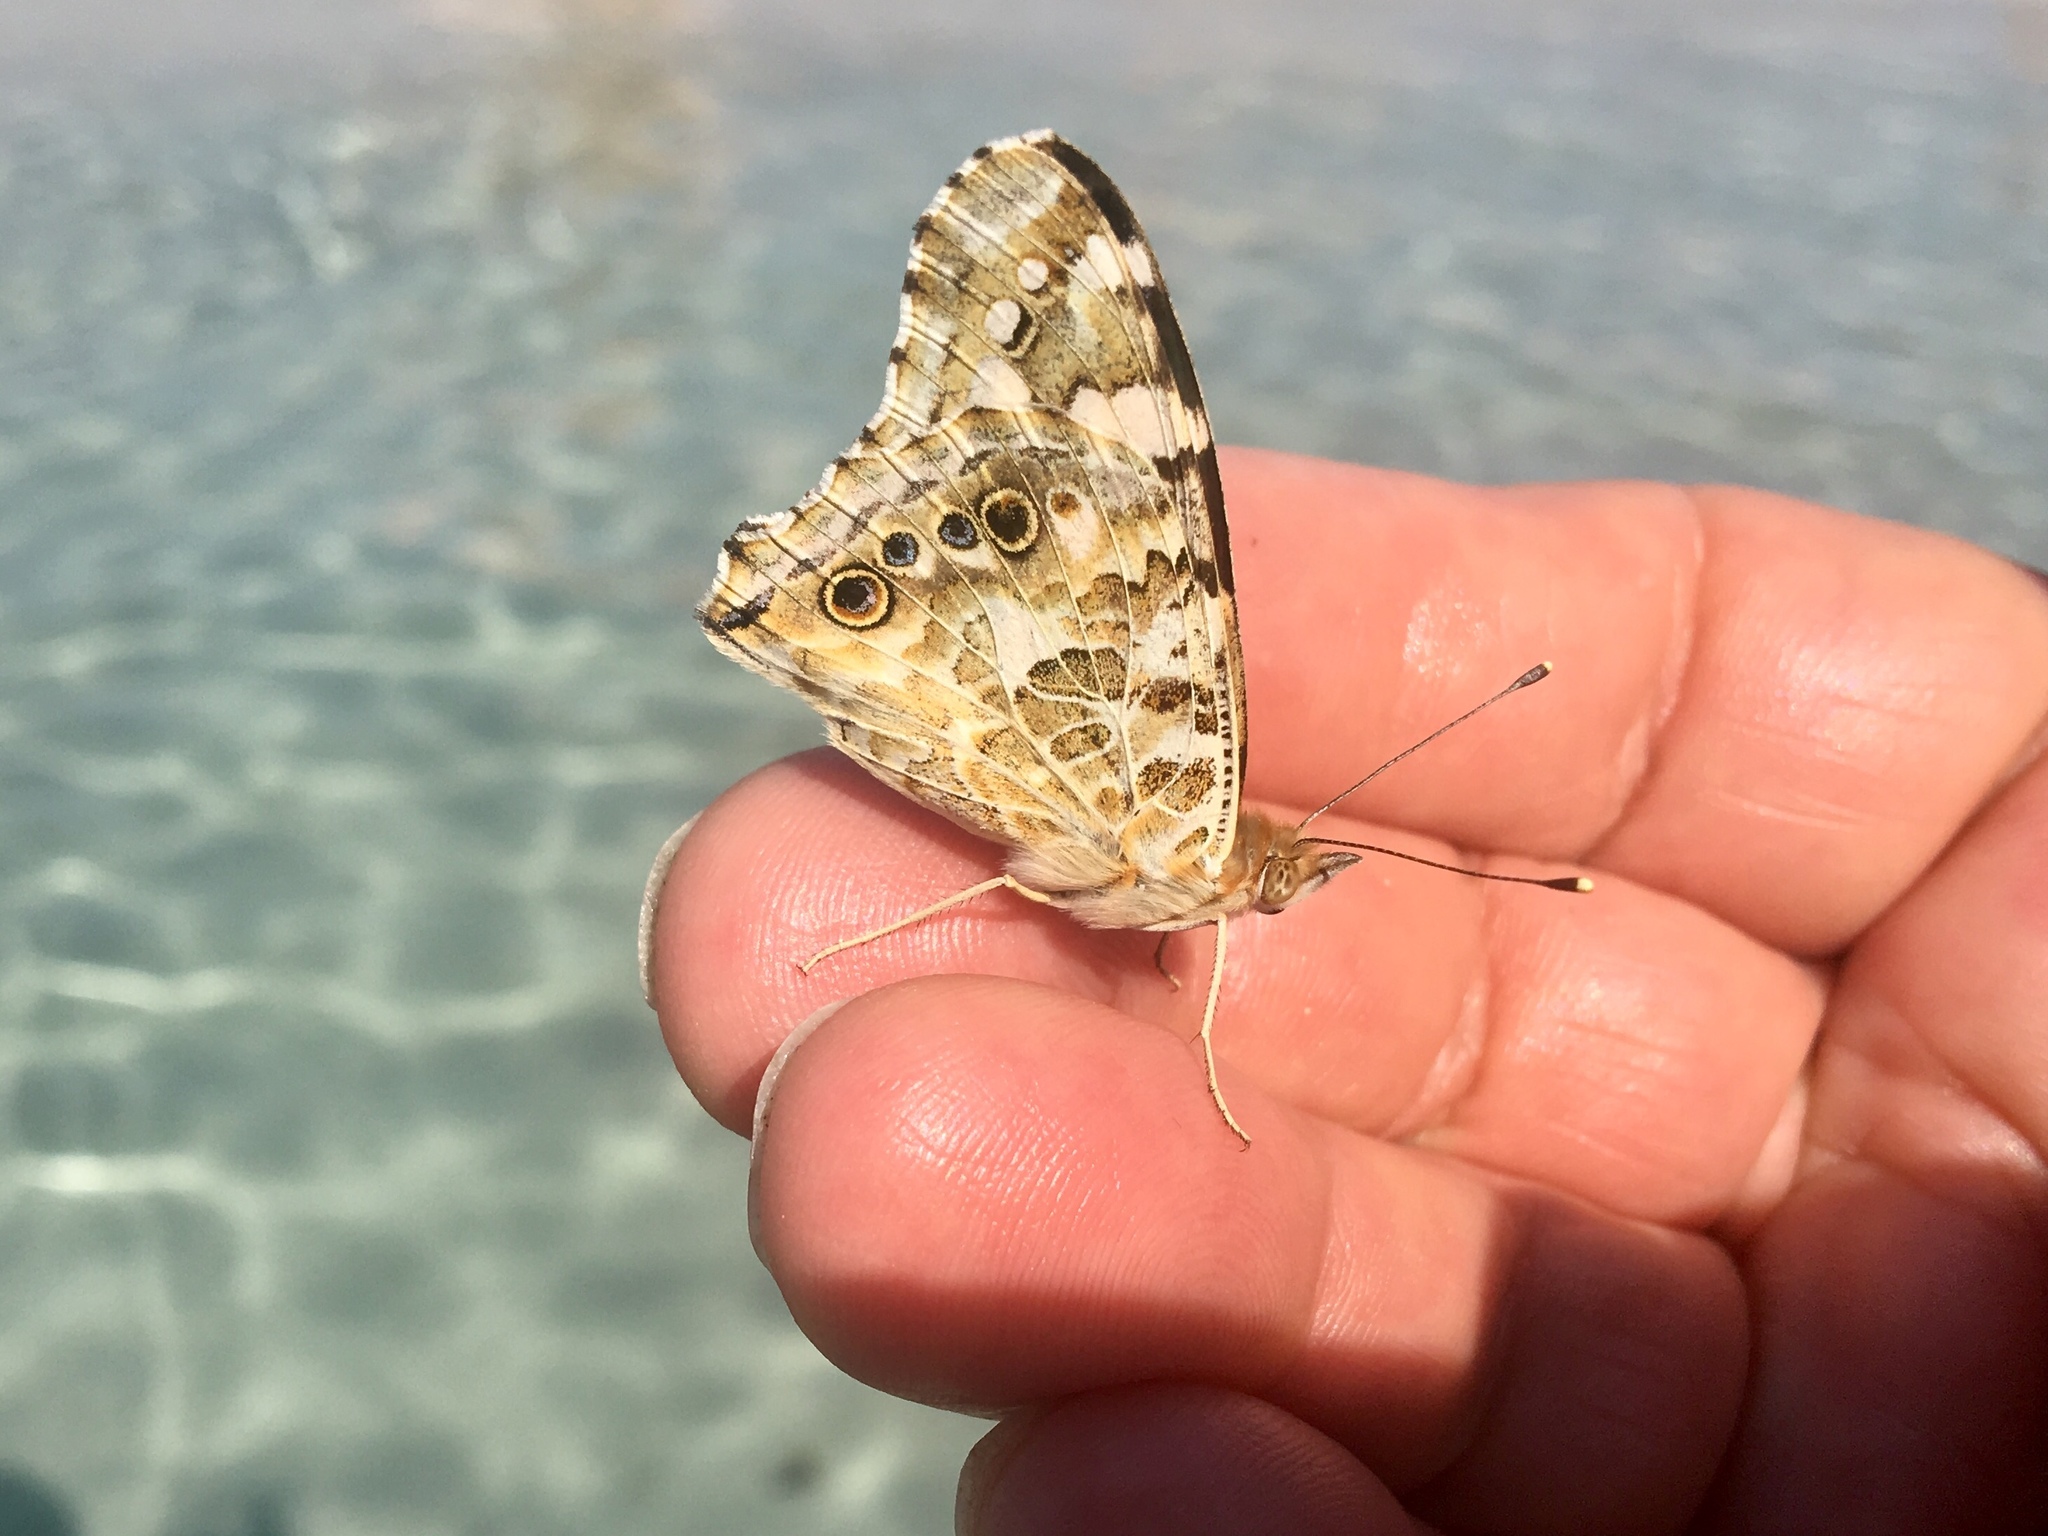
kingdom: Animalia
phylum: Arthropoda
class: Insecta
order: Lepidoptera
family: Nymphalidae
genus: Vanessa
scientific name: Vanessa cardui
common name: Painted lady
